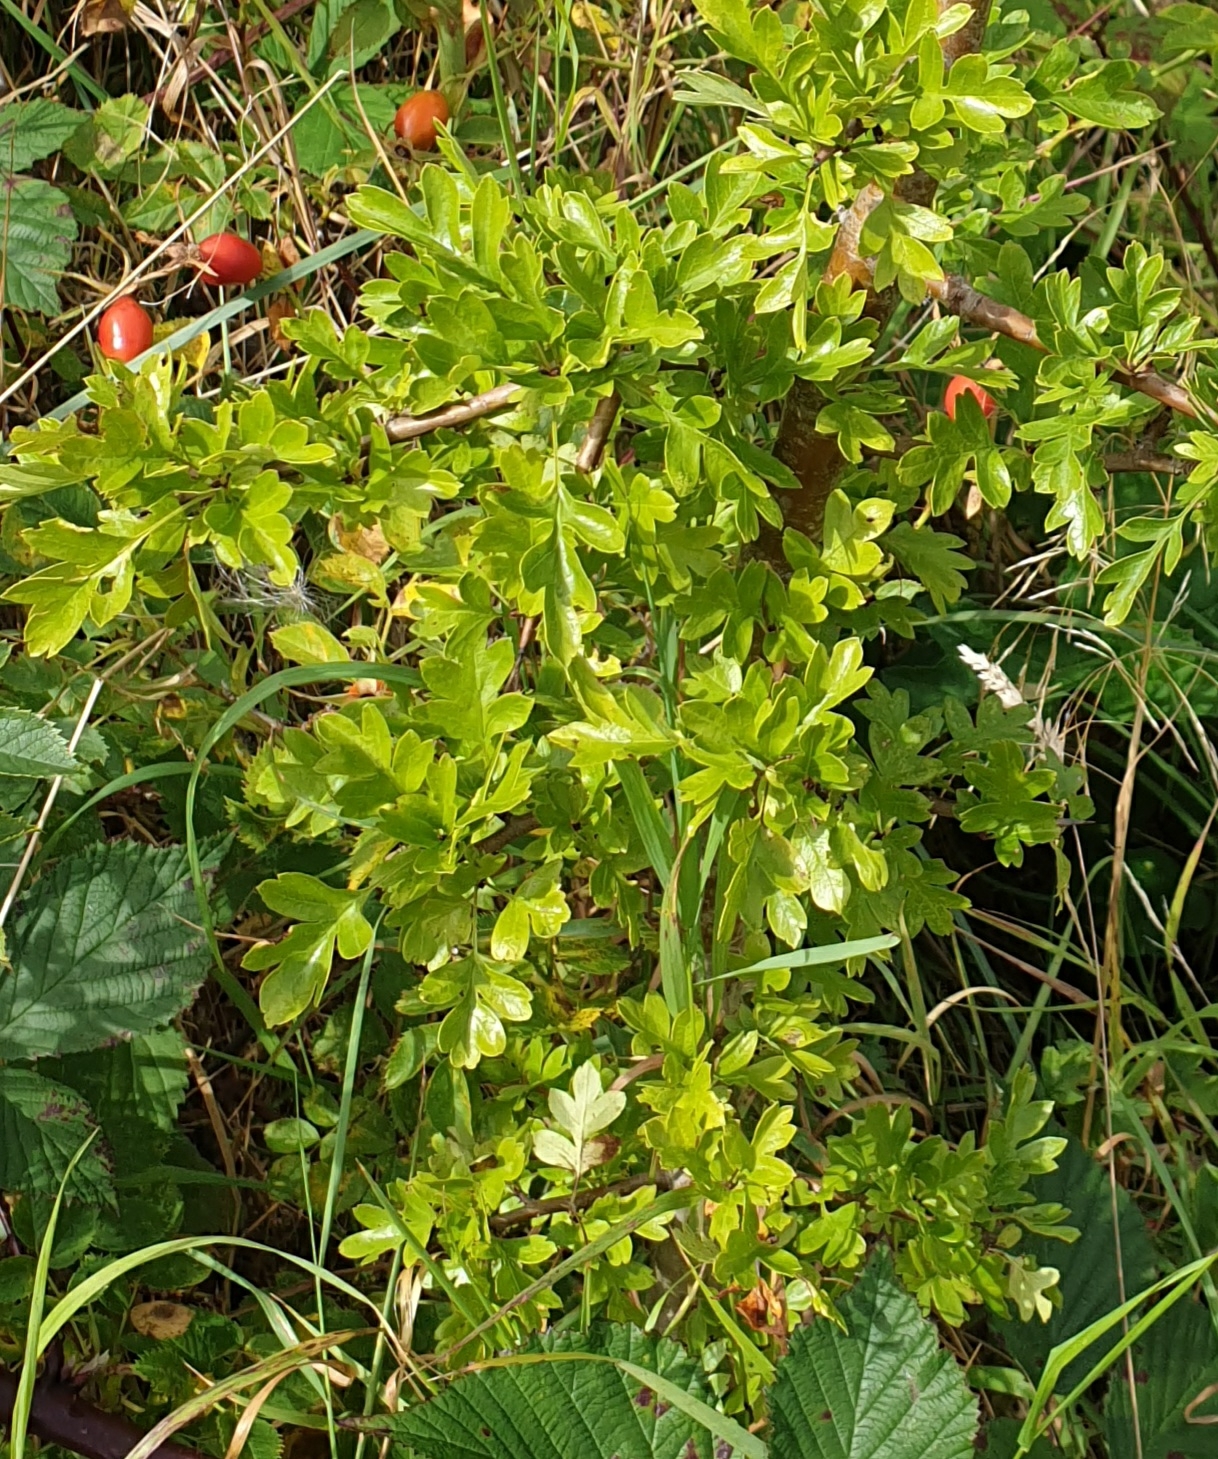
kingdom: Plantae
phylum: Tracheophyta
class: Magnoliopsida
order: Rosales
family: Rosaceae
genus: Crataegus
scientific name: Crataegus monogyna
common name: Hawthorn
